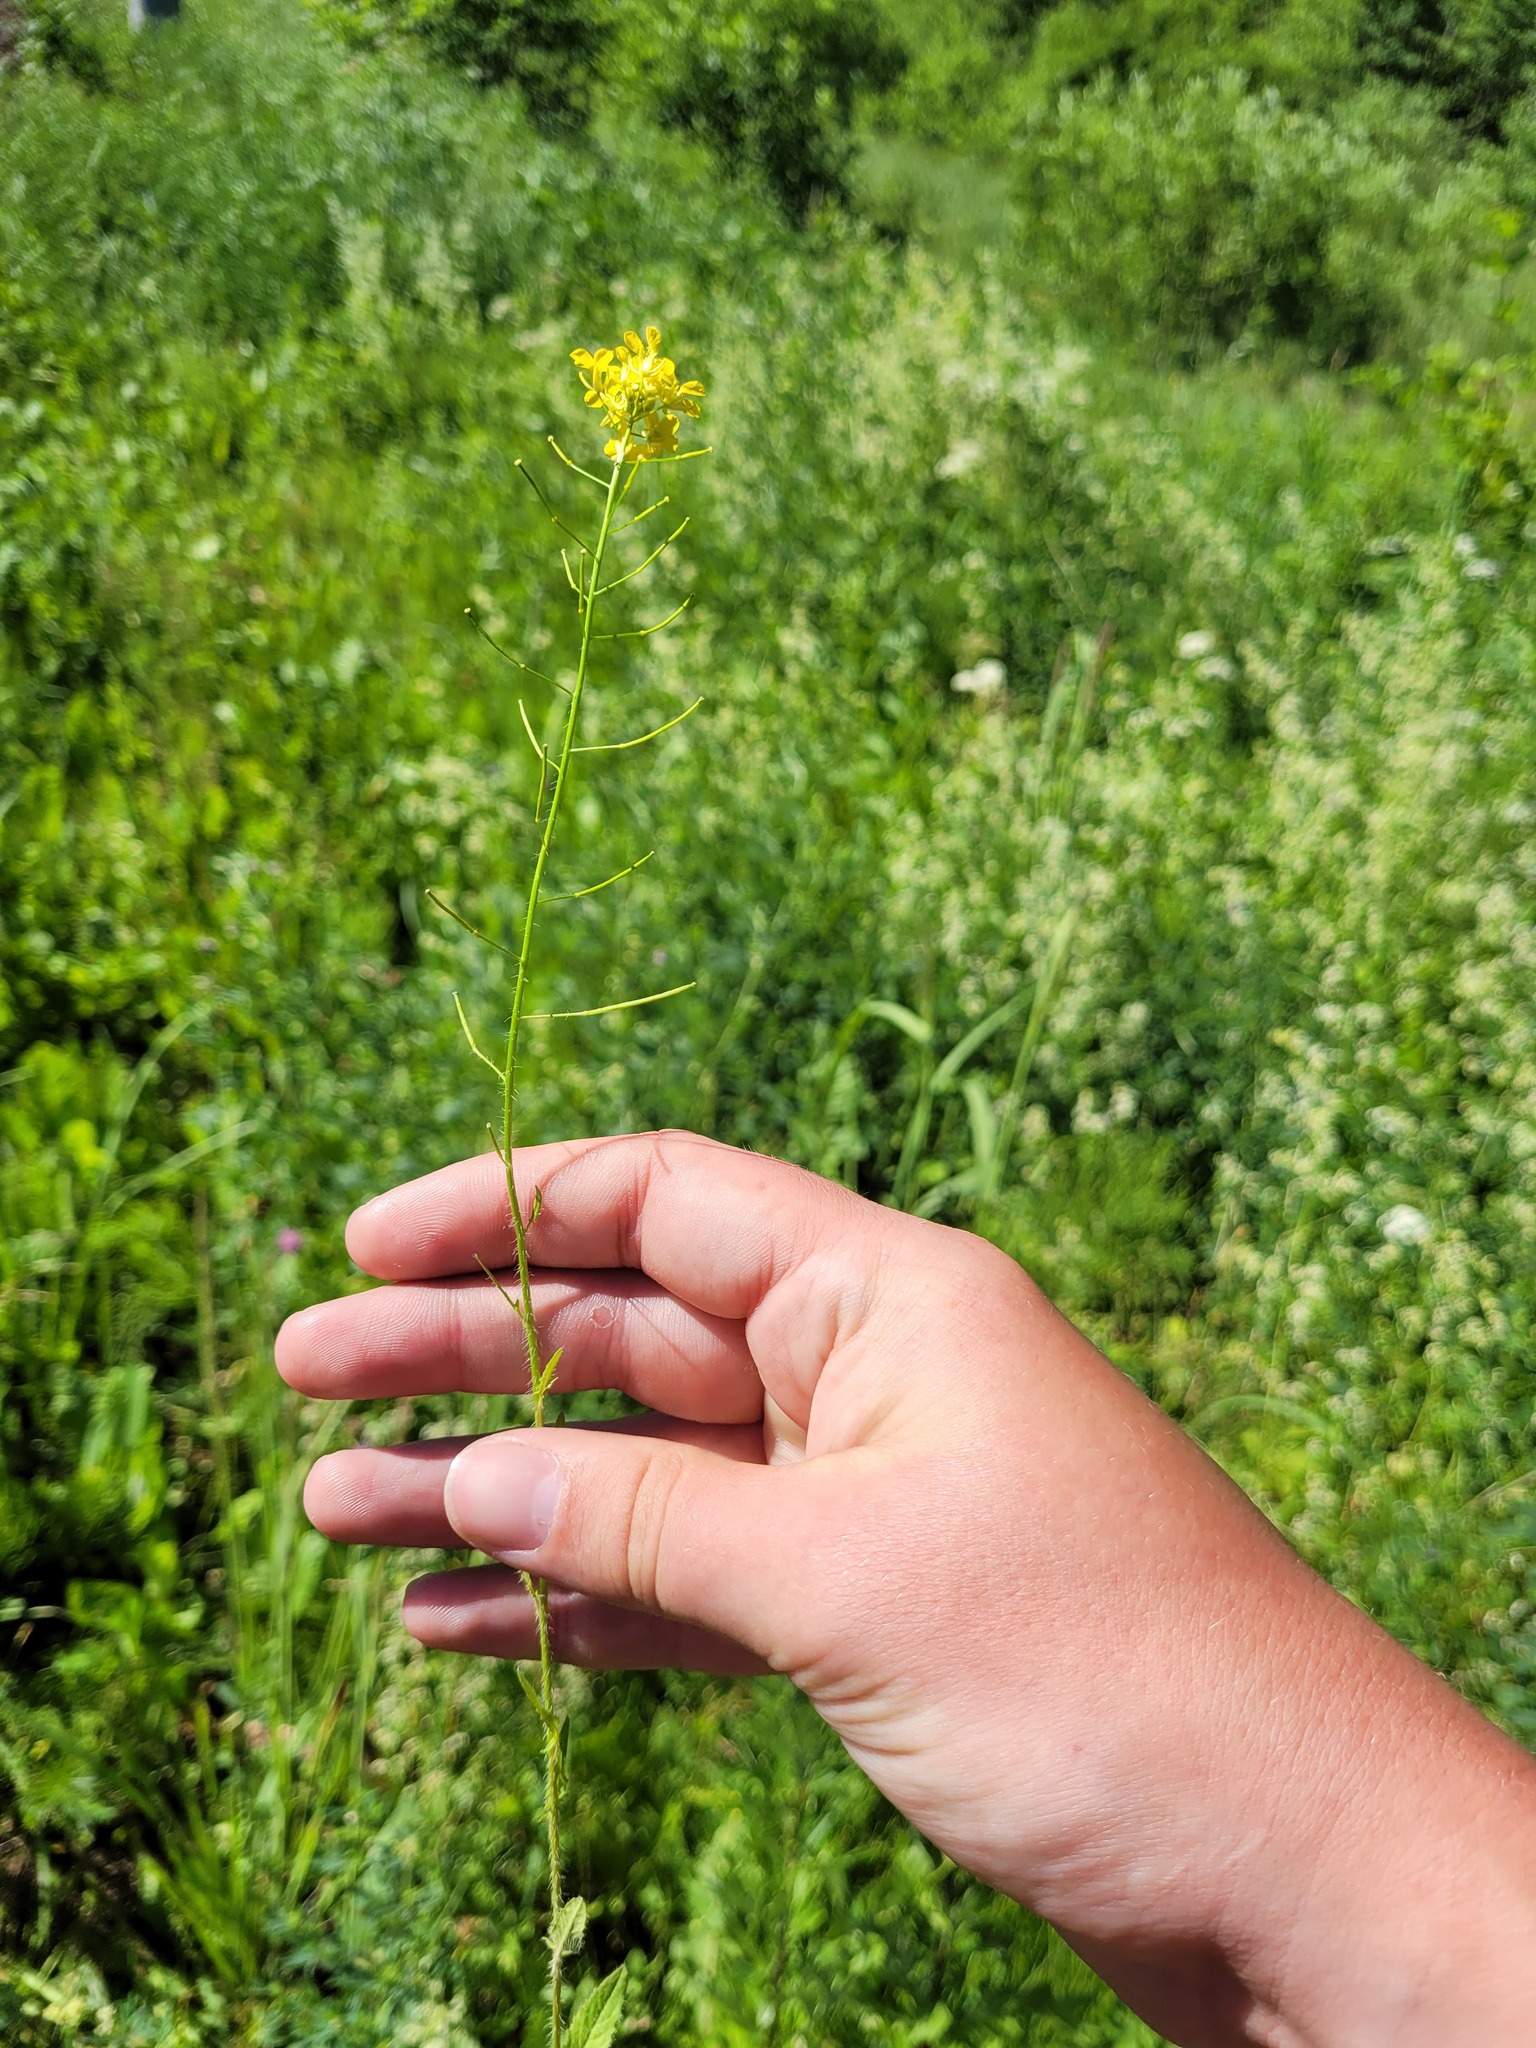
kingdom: Plantae
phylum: Tracheophyta
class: Magnoliopsida
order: Brassicales
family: Brassicaceae
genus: Sisymbrium
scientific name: Sisymbrium loeselii
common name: False london-rocket
